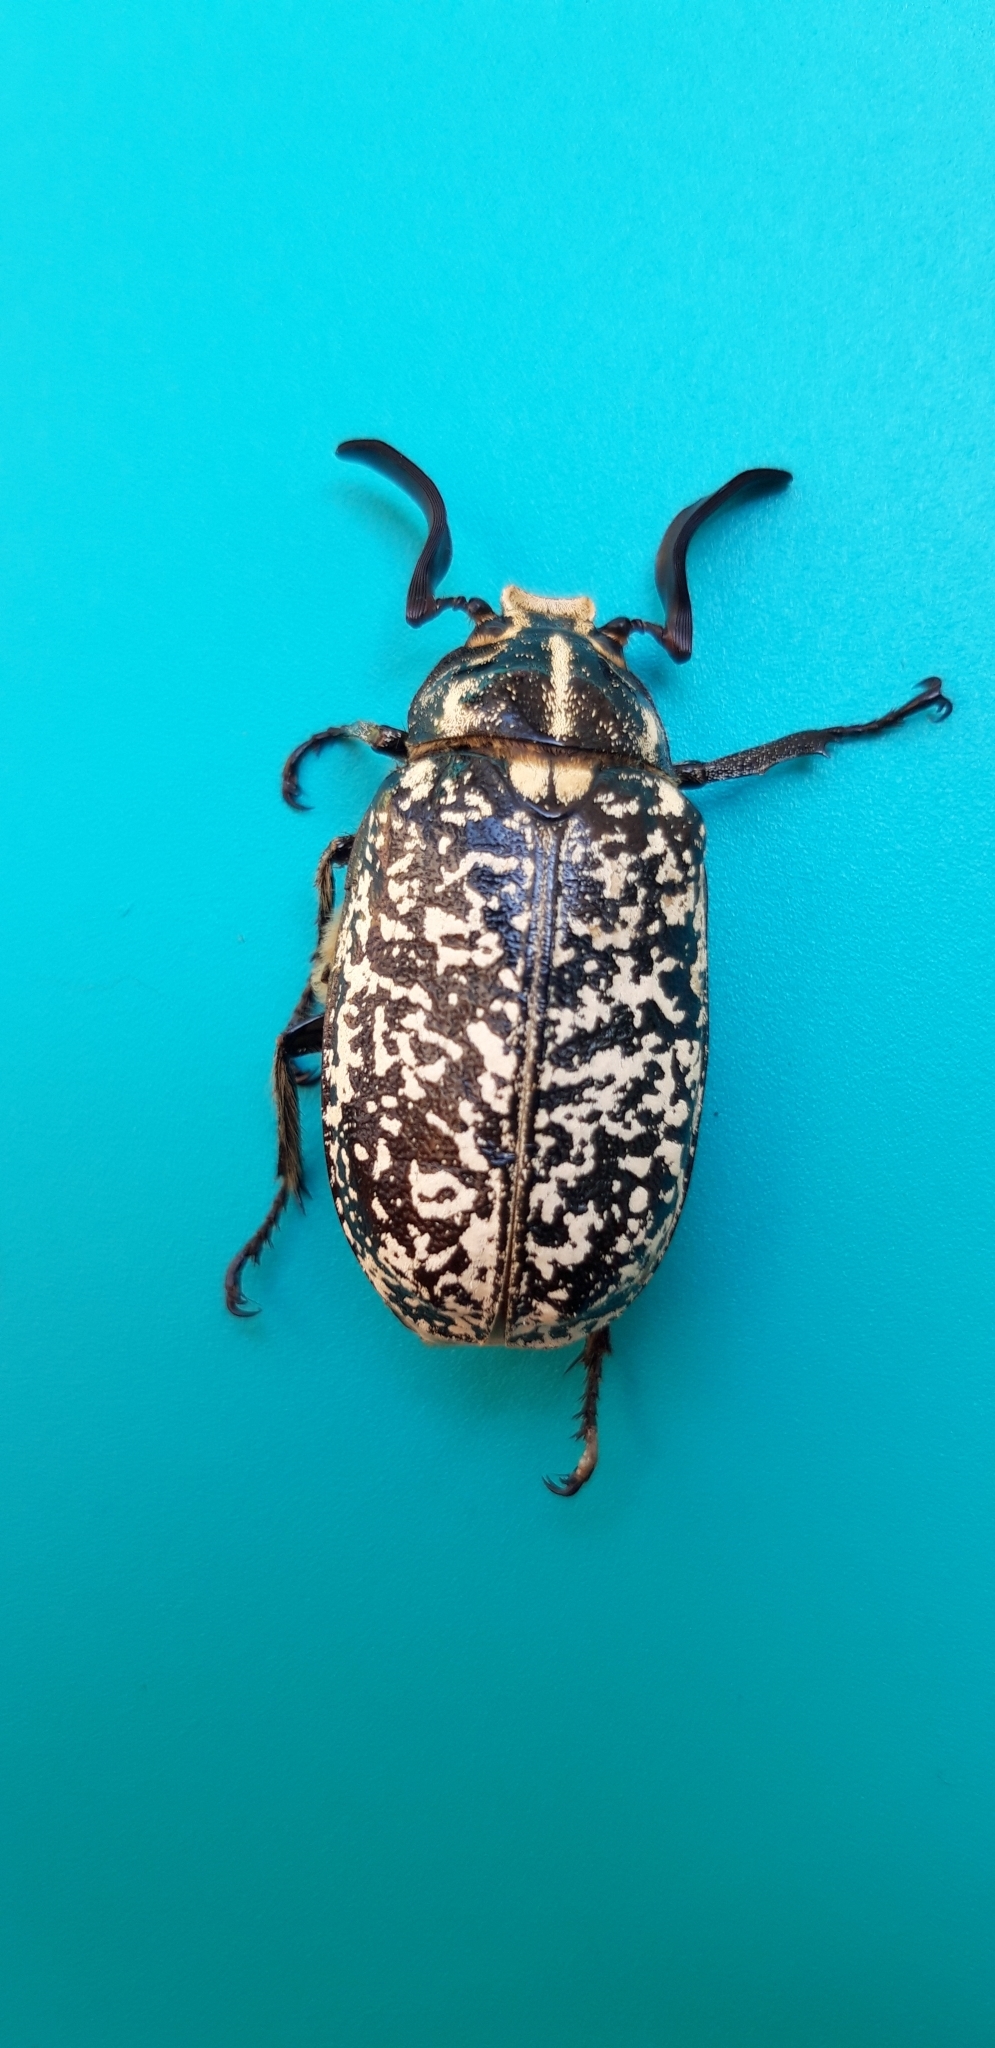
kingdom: Animalia
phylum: Arthropoda
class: Insecta
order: Coleoptera
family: Scarabaeidae
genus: Polyphylla
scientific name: Polyphylla fullo
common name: Pine chafer
